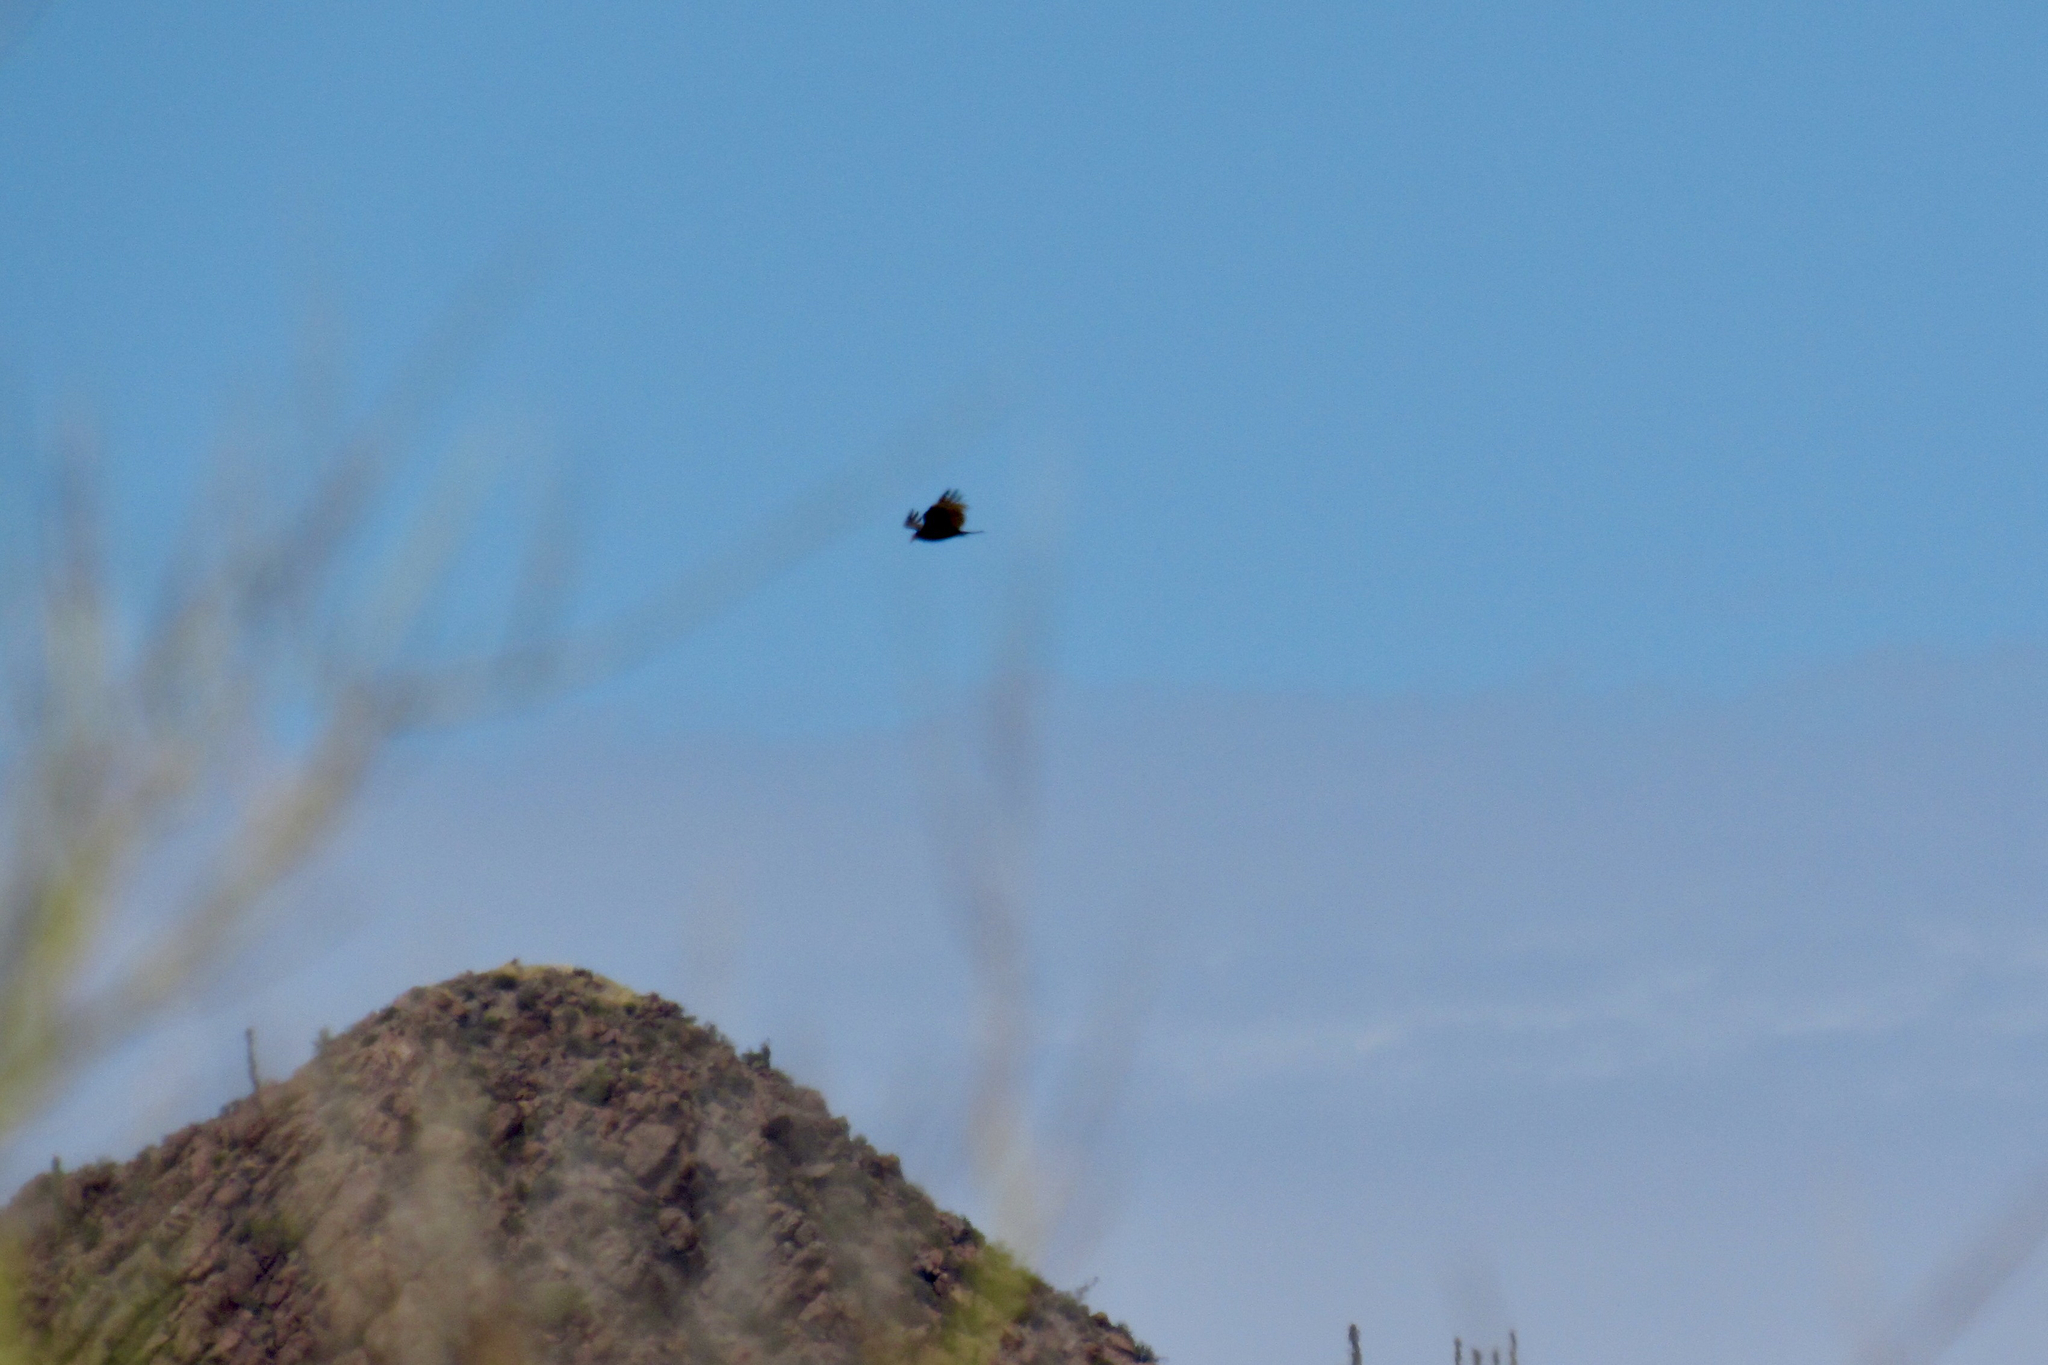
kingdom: Animalia
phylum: Chordata
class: Aves
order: Accipitriformes
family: Cathartidae
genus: Cathartes
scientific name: Cathartes aura
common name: Turkey vulture
